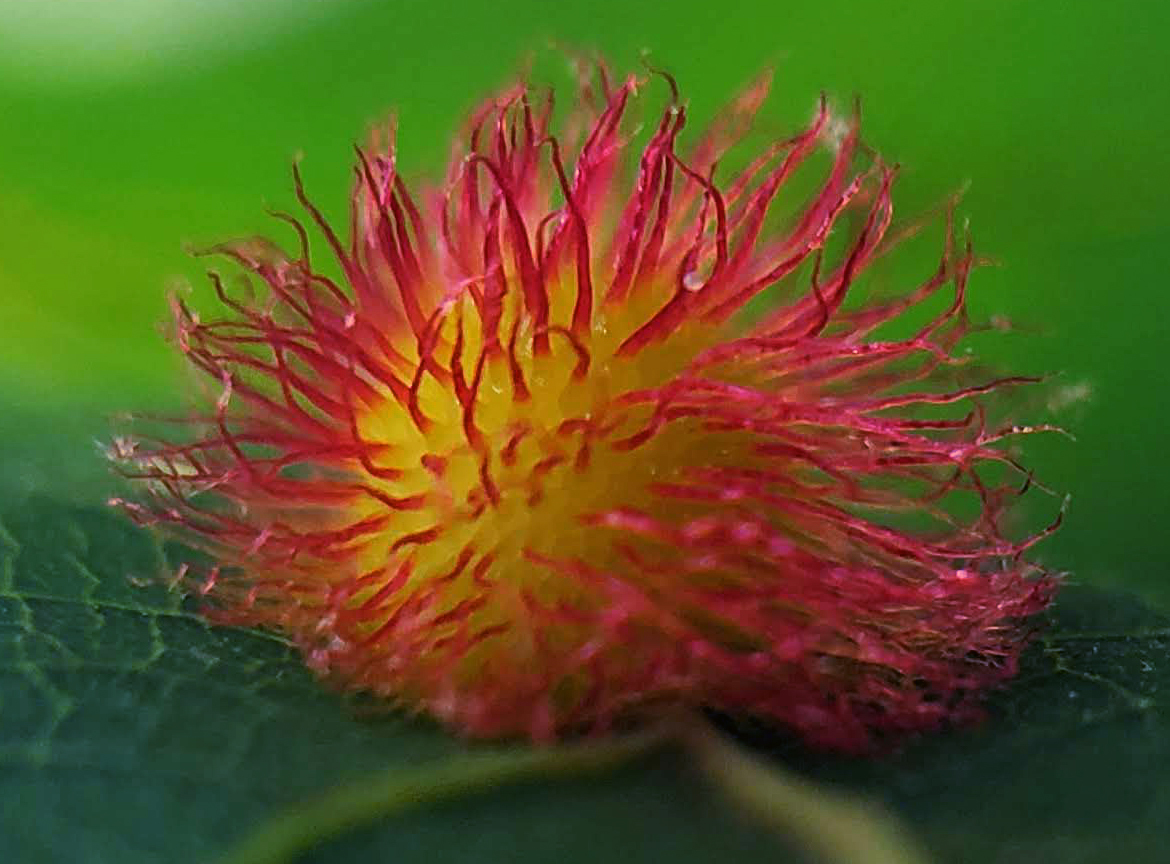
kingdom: Animalia
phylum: Arthropoda
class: Insecta
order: Hymenoptera
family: Cynipidae
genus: Acraspis
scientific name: Acraspis erinacei
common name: Hedgehog gall wasp
